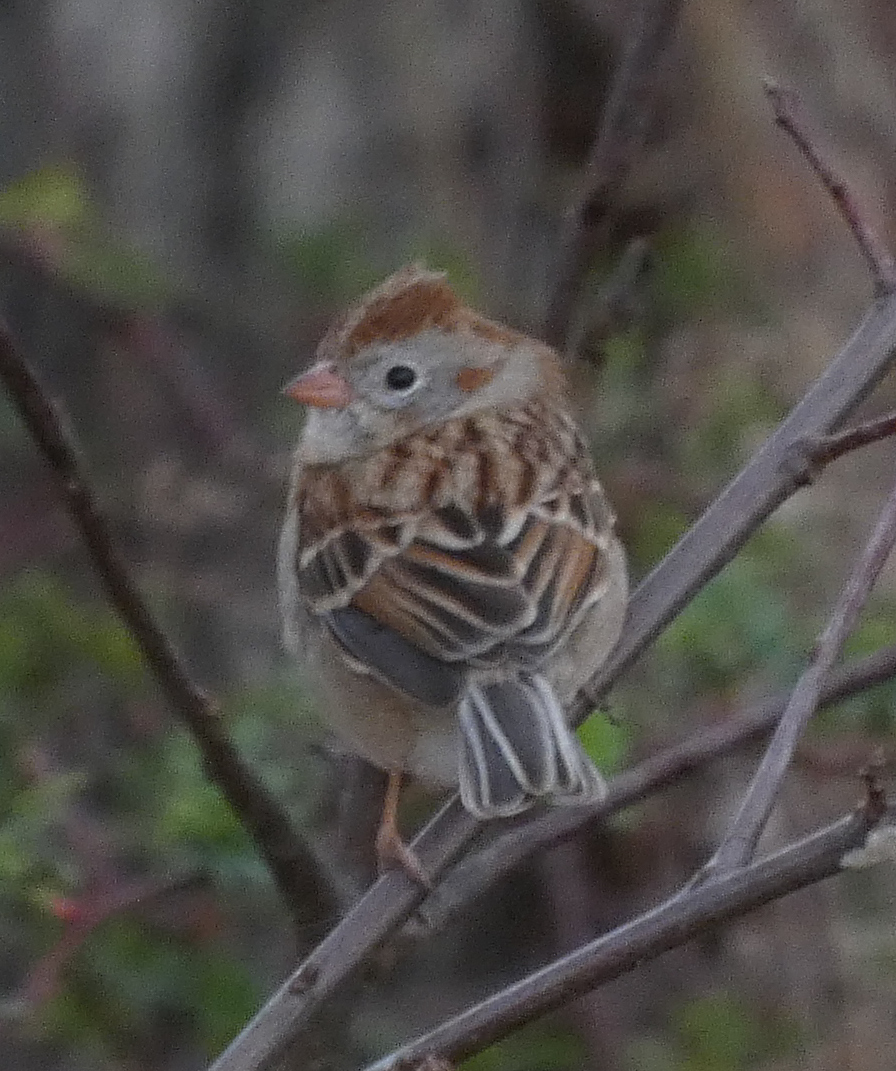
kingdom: Animalia
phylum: Chordata
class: Aves
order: Passeriformes
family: Passerellidae
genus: Spizella
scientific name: Spizella pusilla
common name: Field sparrow
